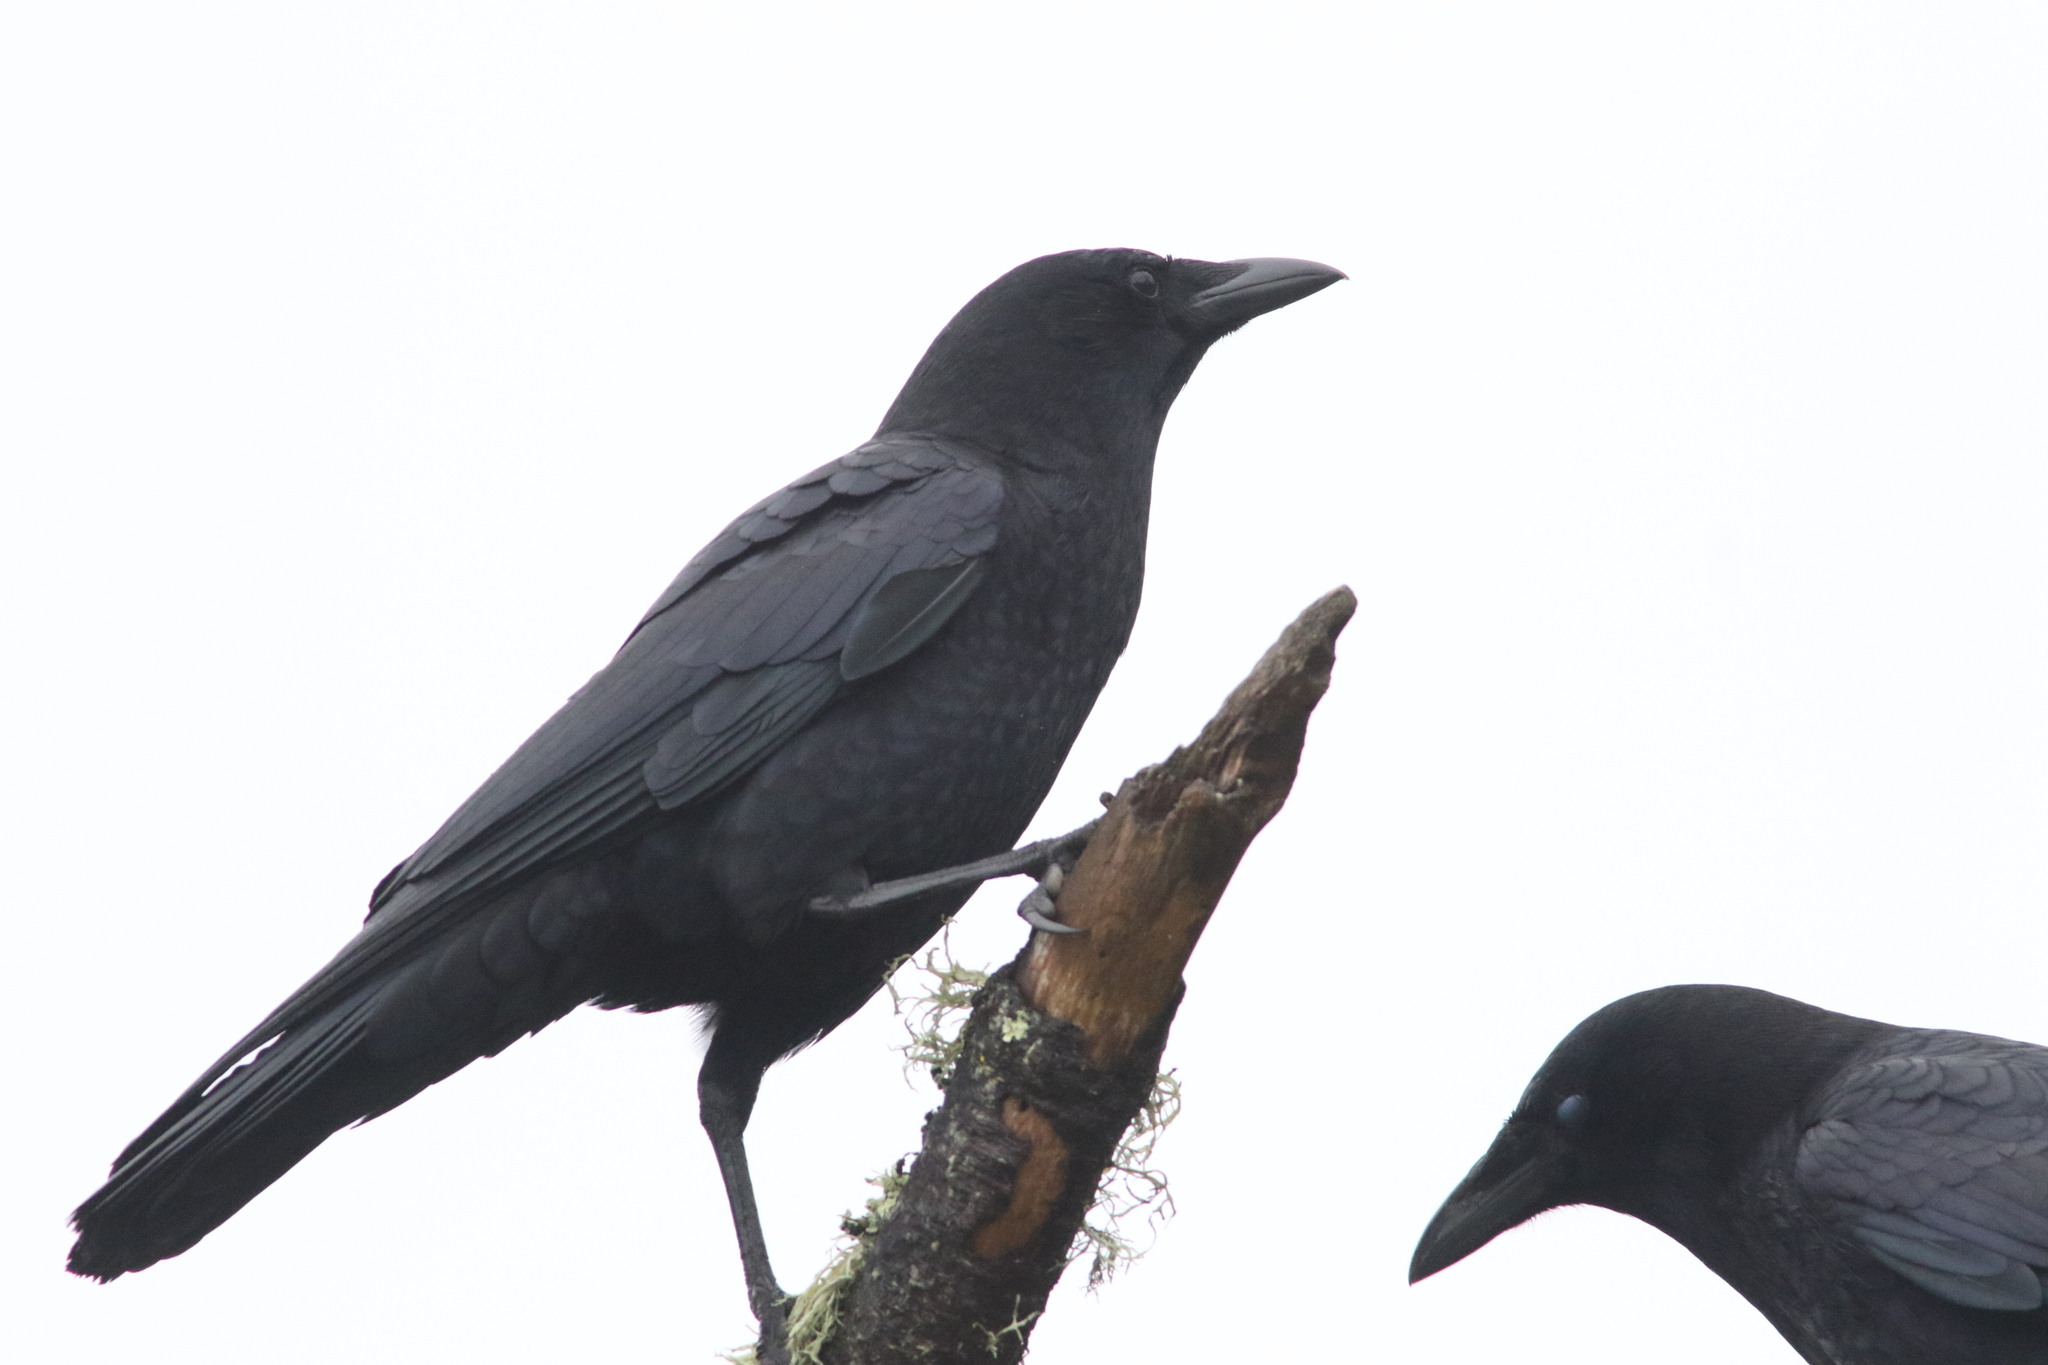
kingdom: Animalia
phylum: Chordata
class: Aves
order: Passeriformes
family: Corvidae
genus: Corvus
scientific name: Corvus brachyrhynchos
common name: American crow
